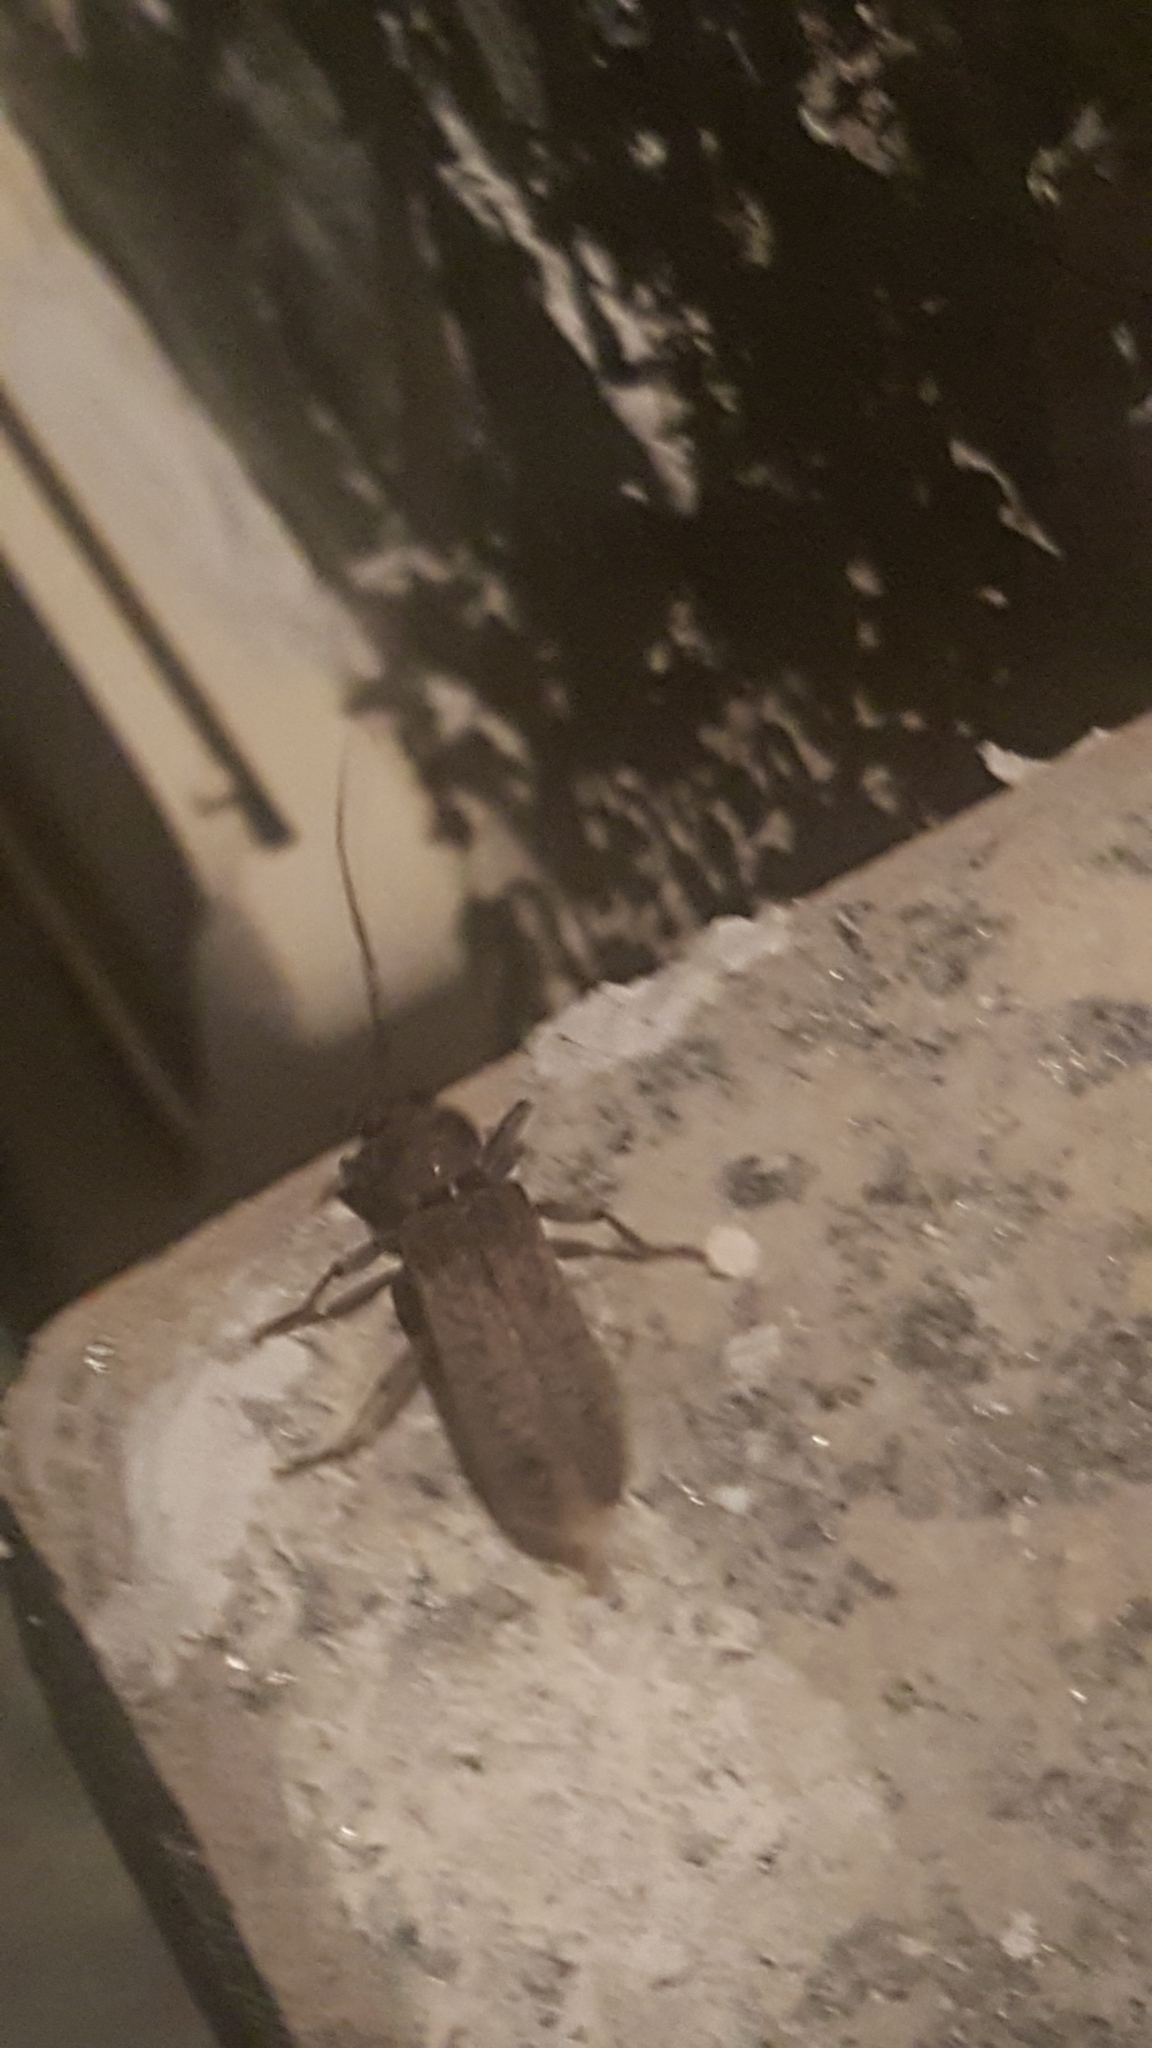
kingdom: Animalia
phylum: Arthropoda
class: Insecta
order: Coleoptera
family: Cerambycidae
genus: Trichoferus
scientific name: Trichoferus holosericeus
